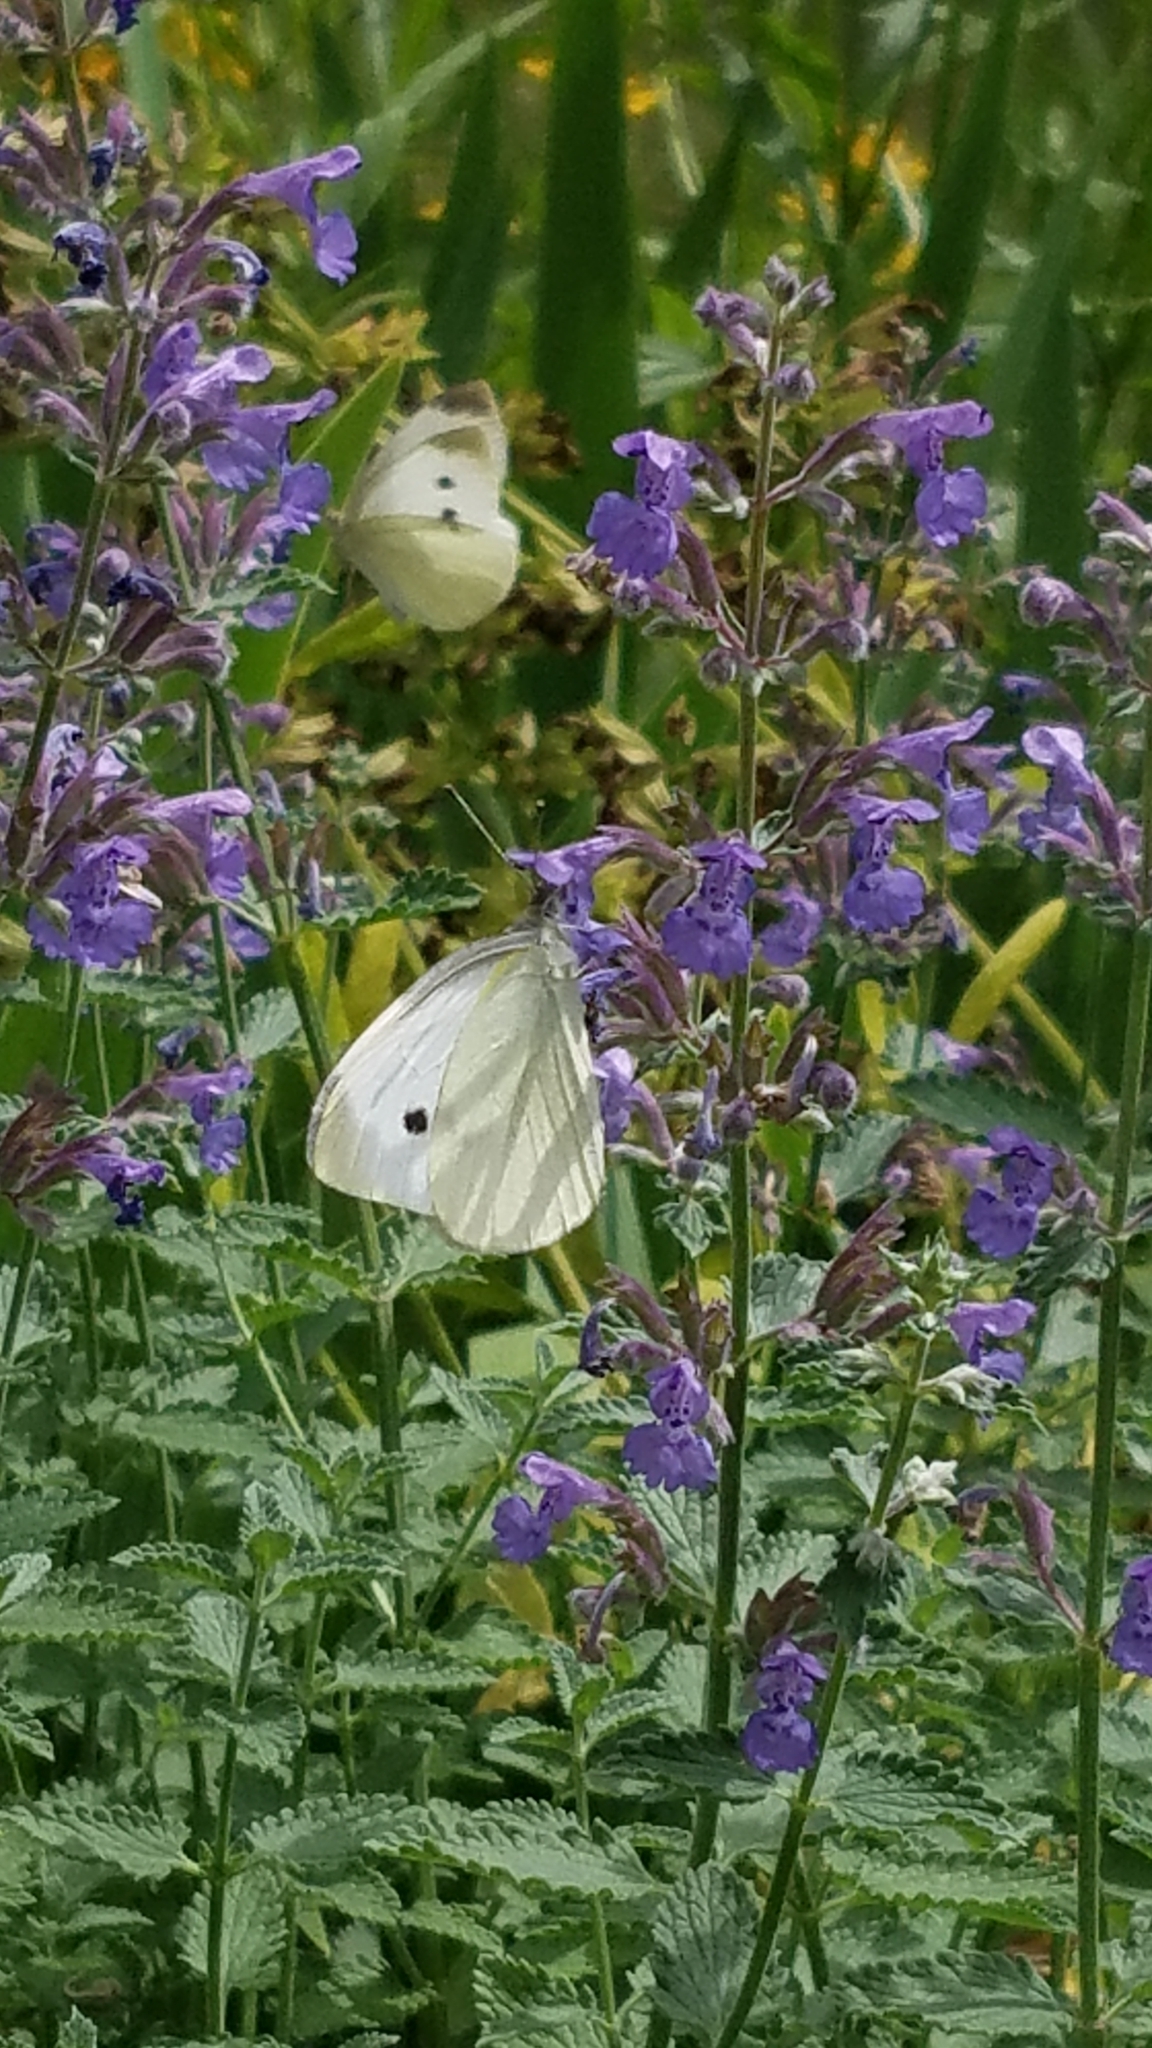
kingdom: Animalia
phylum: Arthropoda
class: Insecta
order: Lepidoptera
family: Pieridae
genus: Pieris
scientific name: Pieris rapae
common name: Small white
